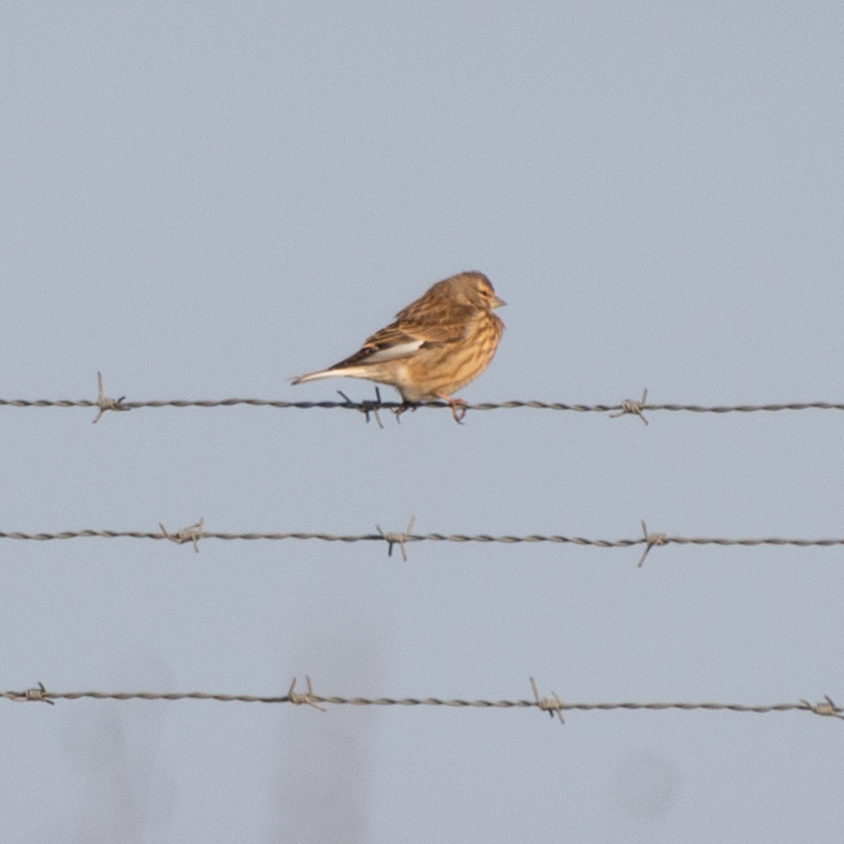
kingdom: Animalia
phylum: Chordata
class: Aves
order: Passeriformes
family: Fringillidae
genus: Linaria
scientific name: Linaria cannabina
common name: Common linnet
